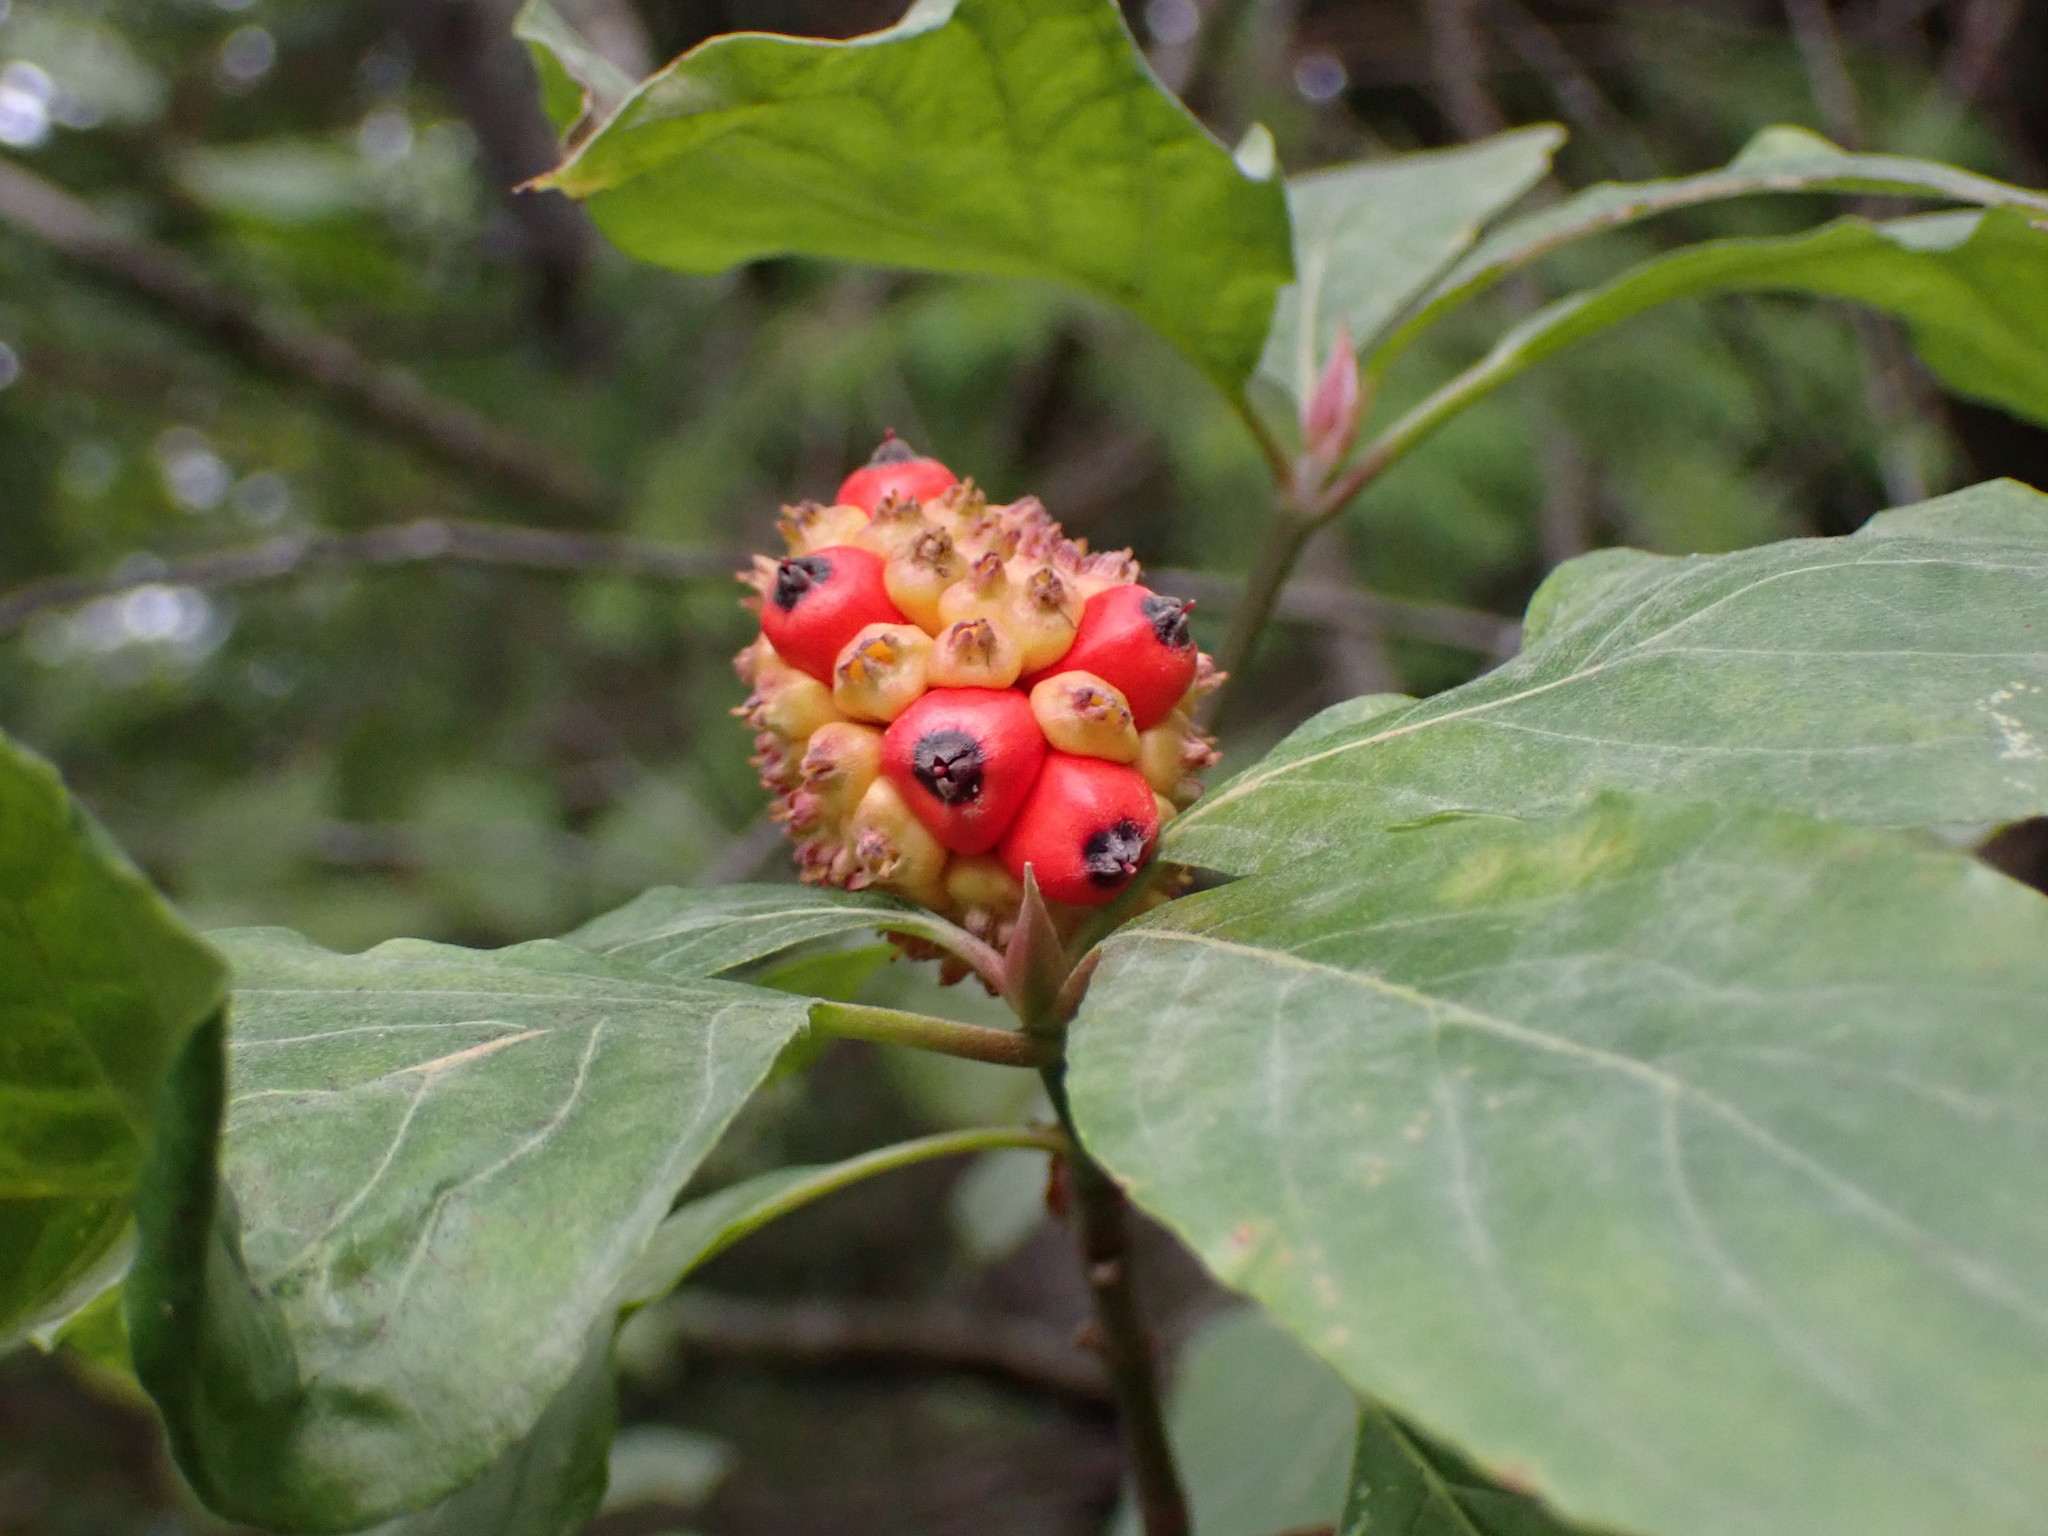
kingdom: Plantae
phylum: Tracheophyta
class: Magnoliopsida
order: Cornales
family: Cornaceae
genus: Cornus
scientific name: Cornus nuttallii
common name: Pacific dogwood
